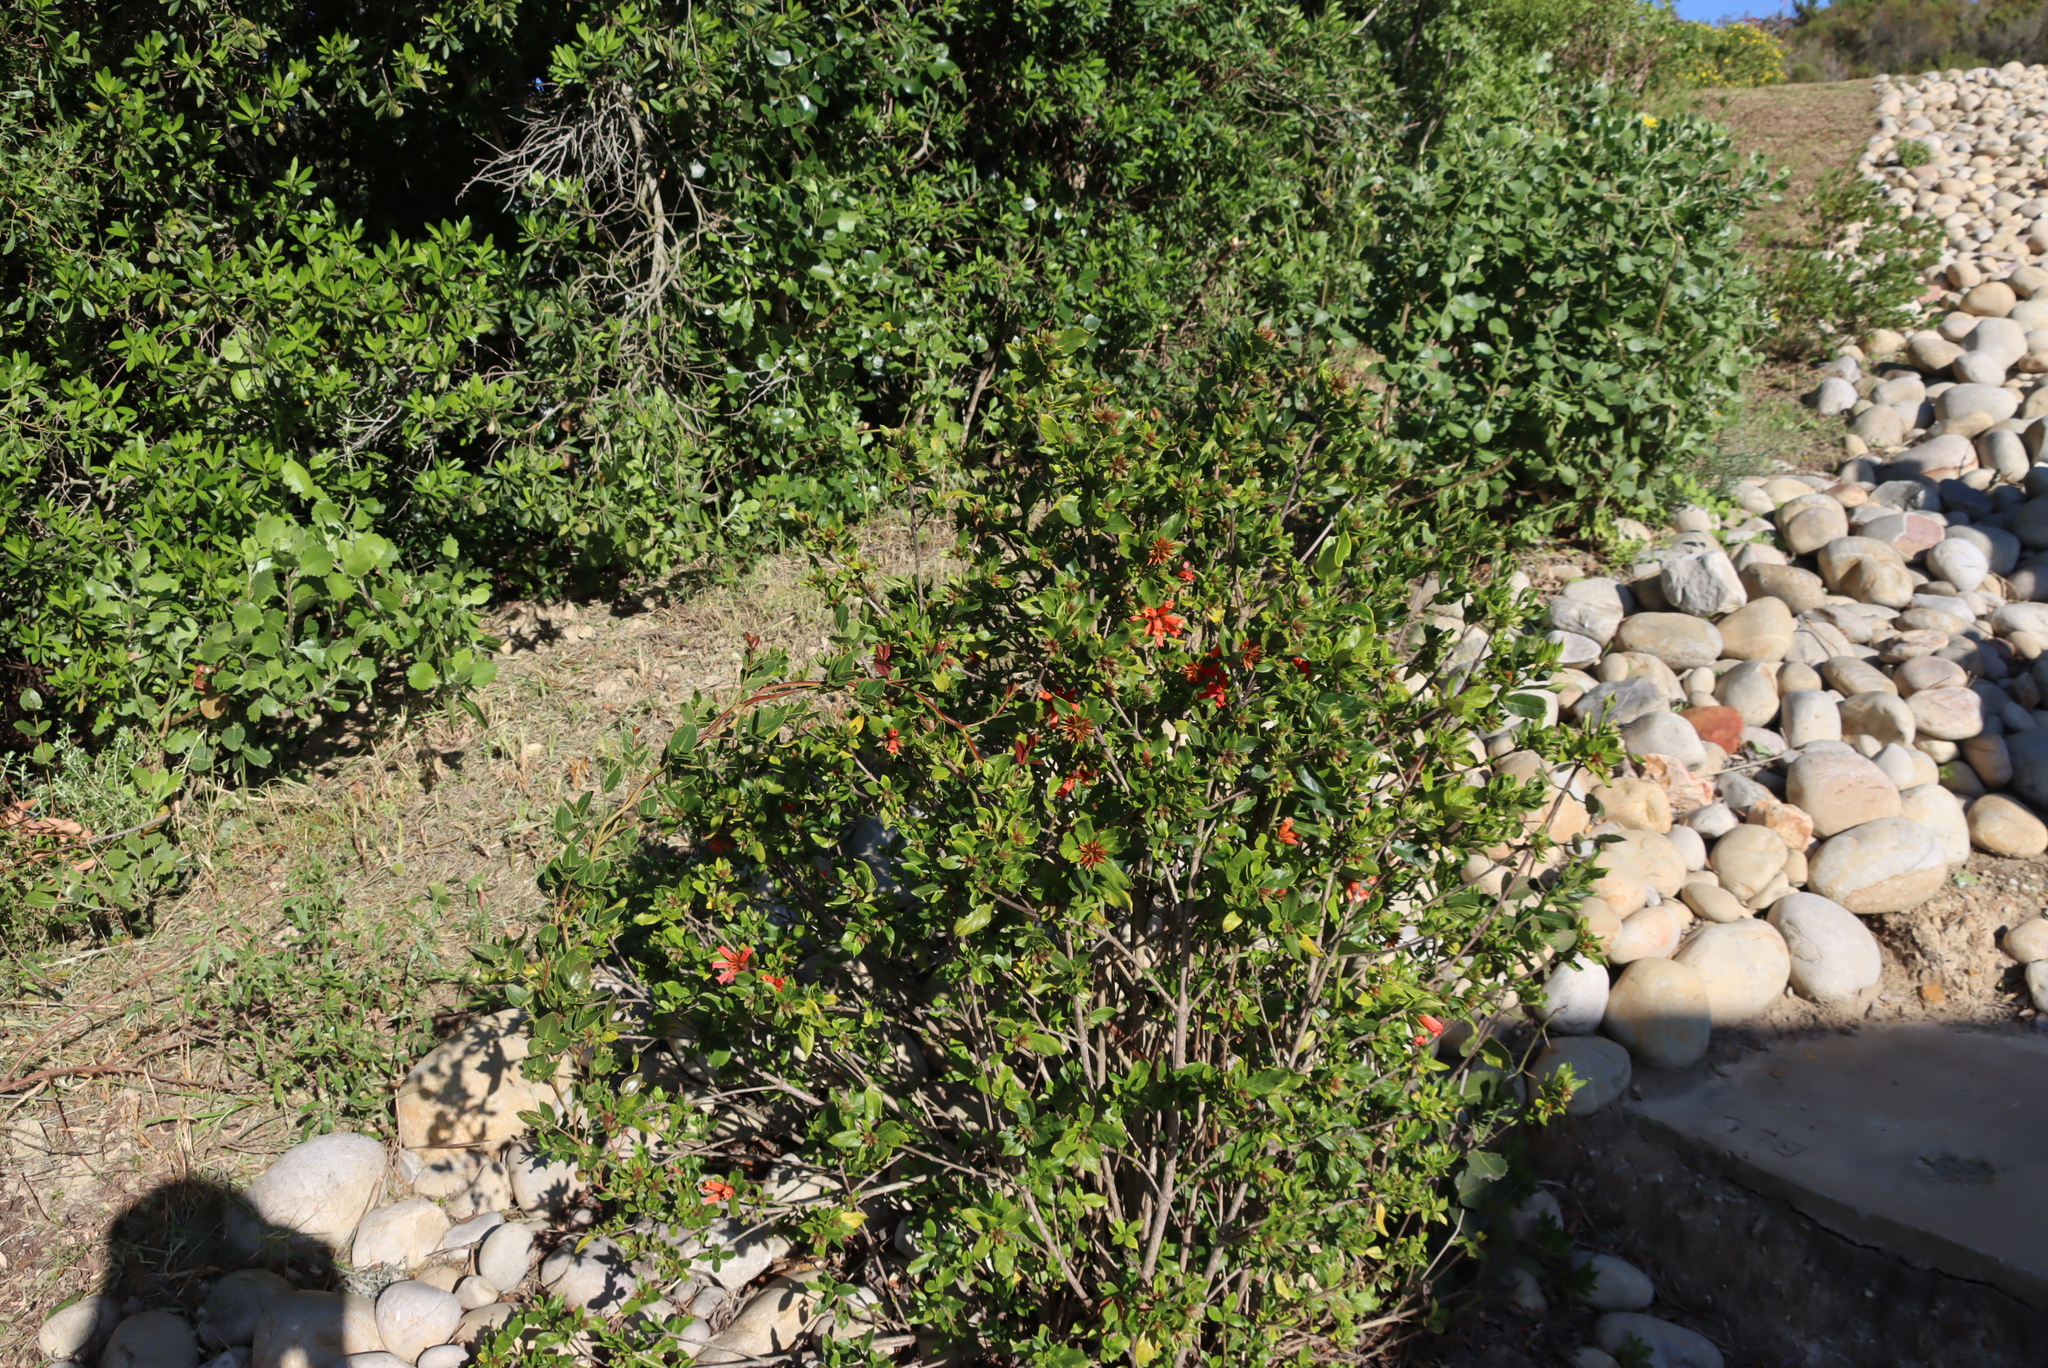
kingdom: Plantae
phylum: Tracheophyta
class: Magnoliopsida
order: Gentianales
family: Rubiaceae
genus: Burchellia
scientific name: Burchellia bubalina
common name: Wild pomegranate
